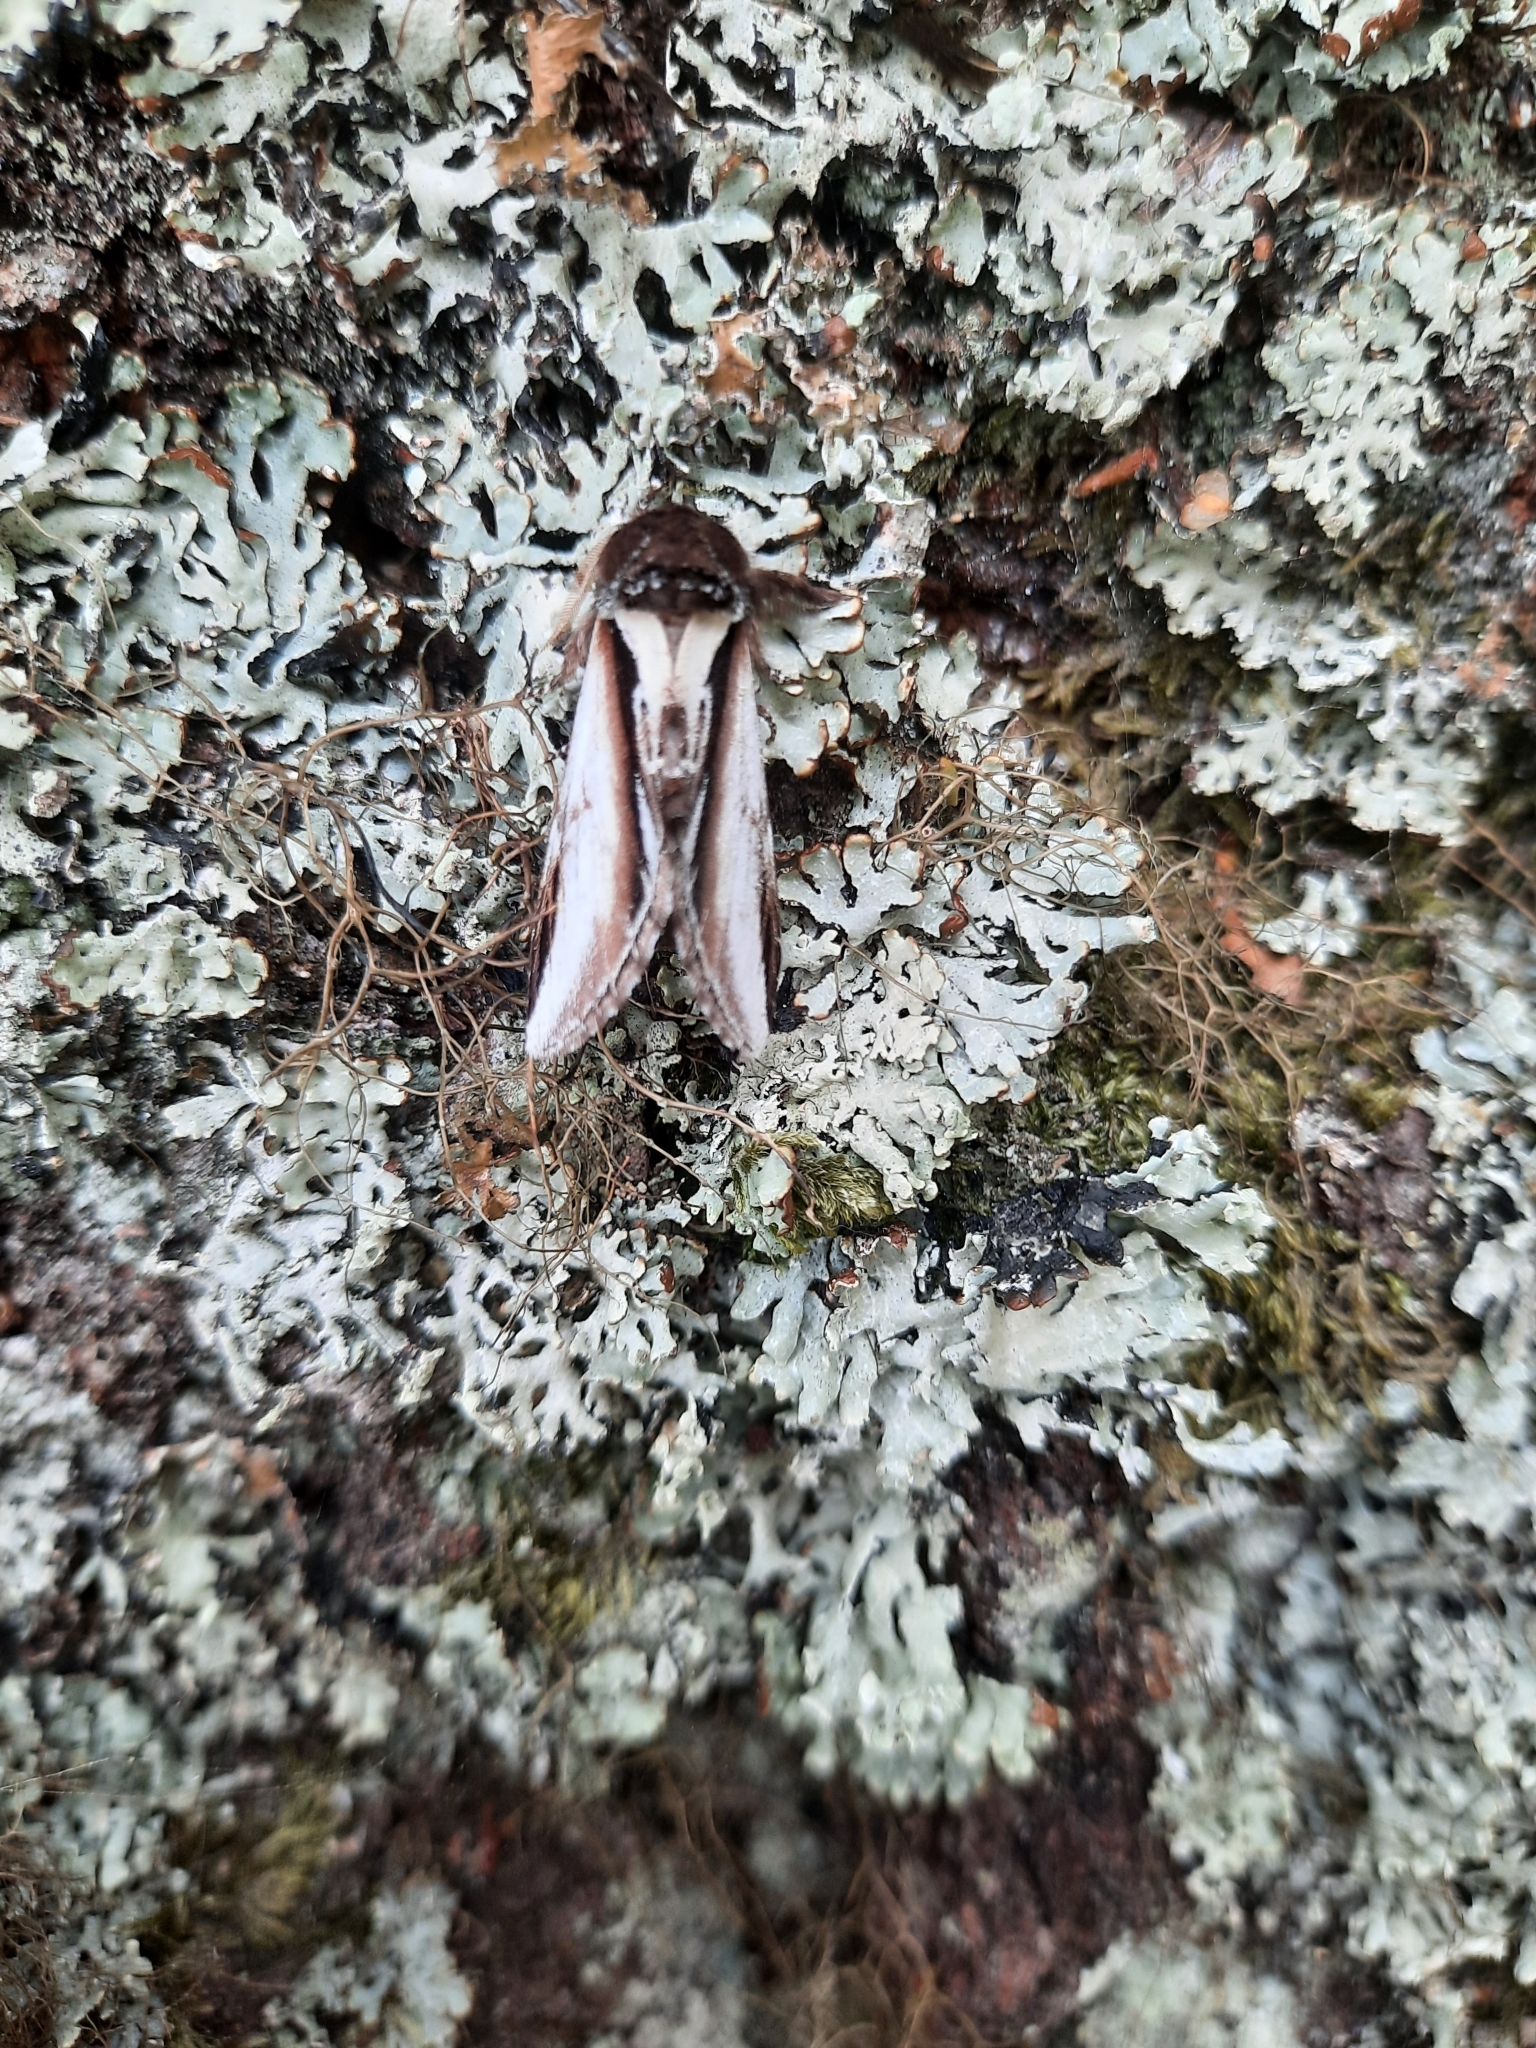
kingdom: Animalia
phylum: Arthropoda
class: Insecta
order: Lepidoptera
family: Notodontidae
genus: Pheosia
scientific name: Pheosia gnoma
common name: Lesser swallow prominent
